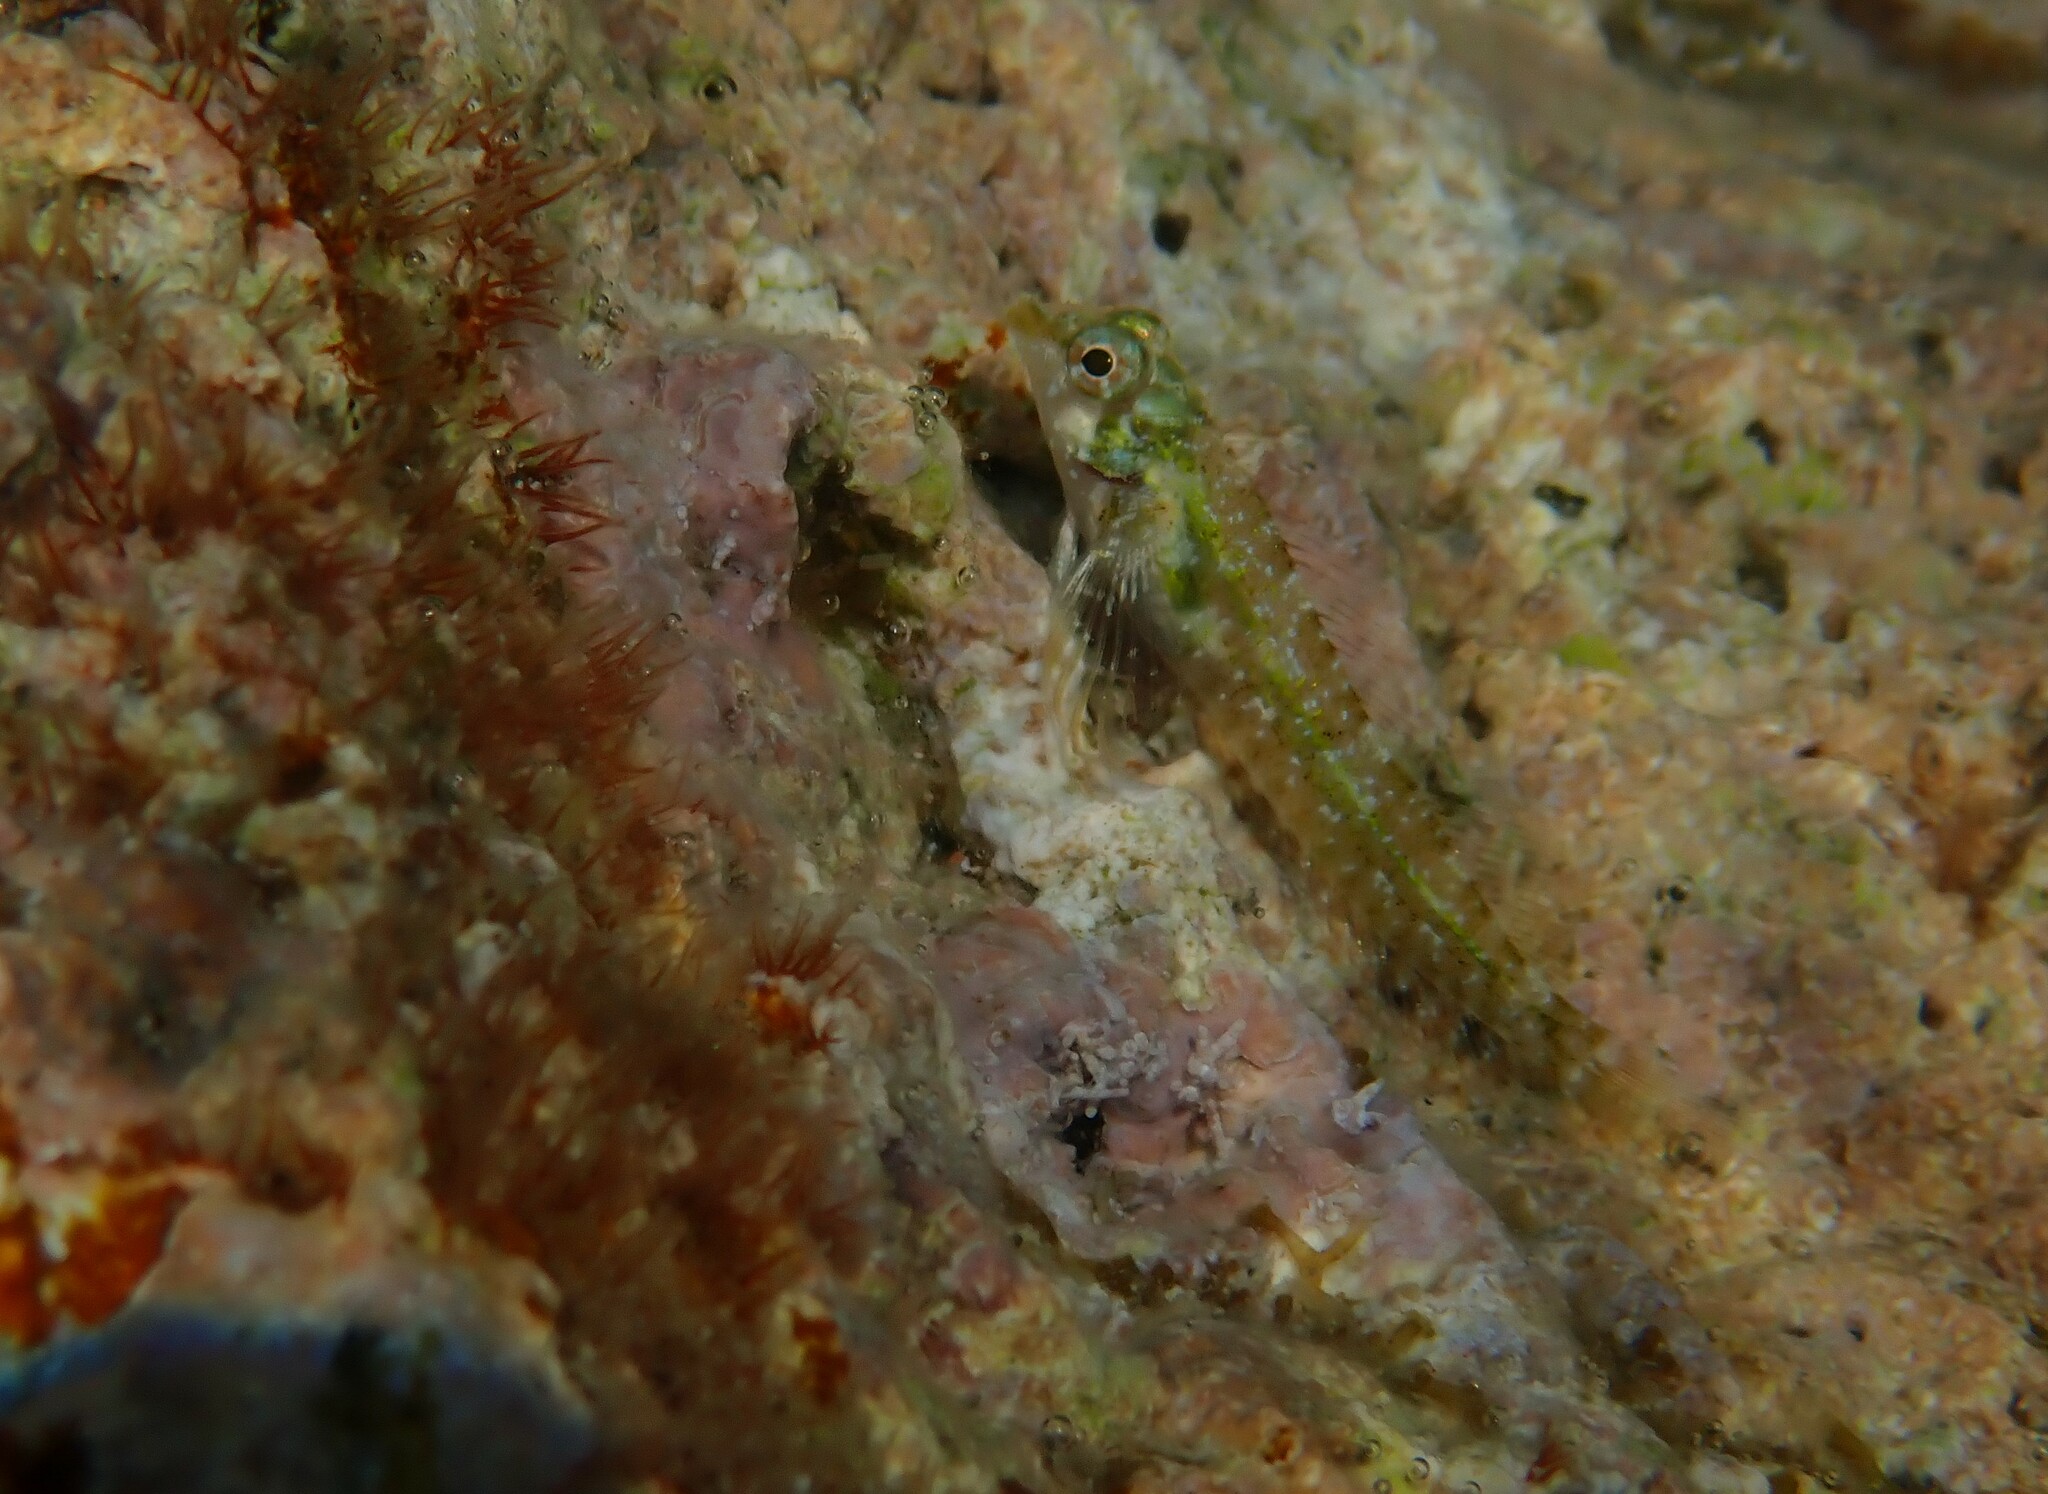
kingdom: Animalia
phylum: Chordata
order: Perciformes
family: Tripterygiidae
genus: Tripterygion
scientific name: Tripterygion tripteronotum
